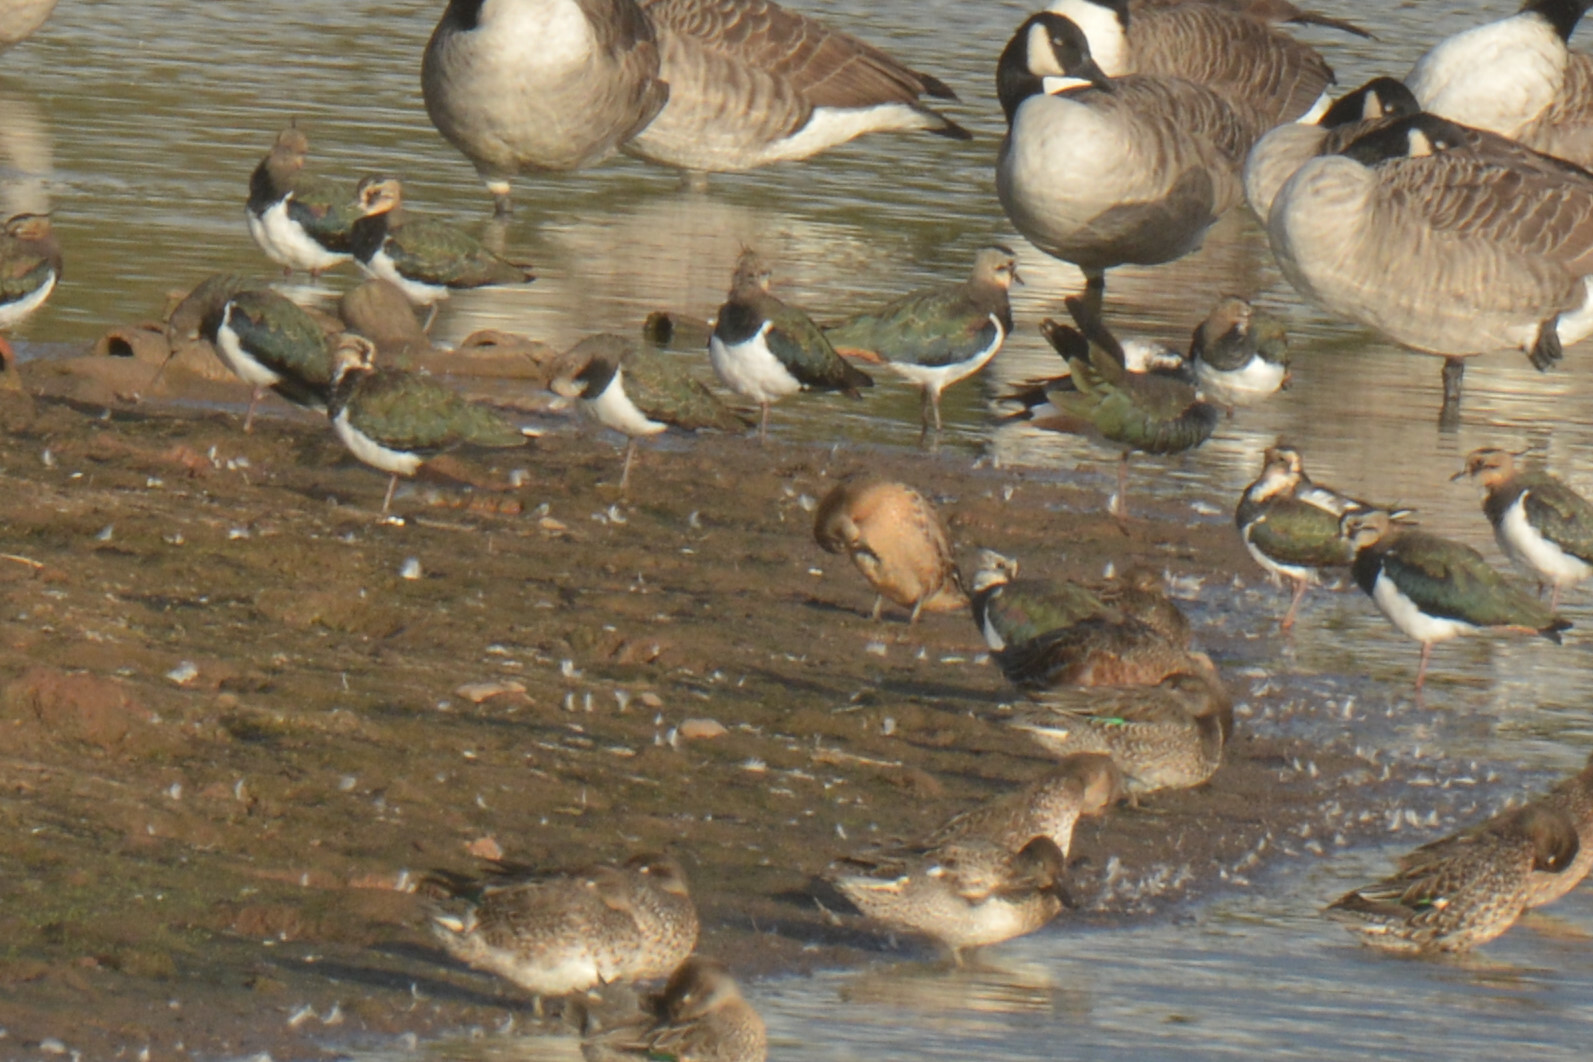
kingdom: Animalia
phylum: Chordata
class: Aves
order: Charadriiformes
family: Charadriidae
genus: Vanellus
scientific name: Vanellus vanellus
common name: Northern lapwing
